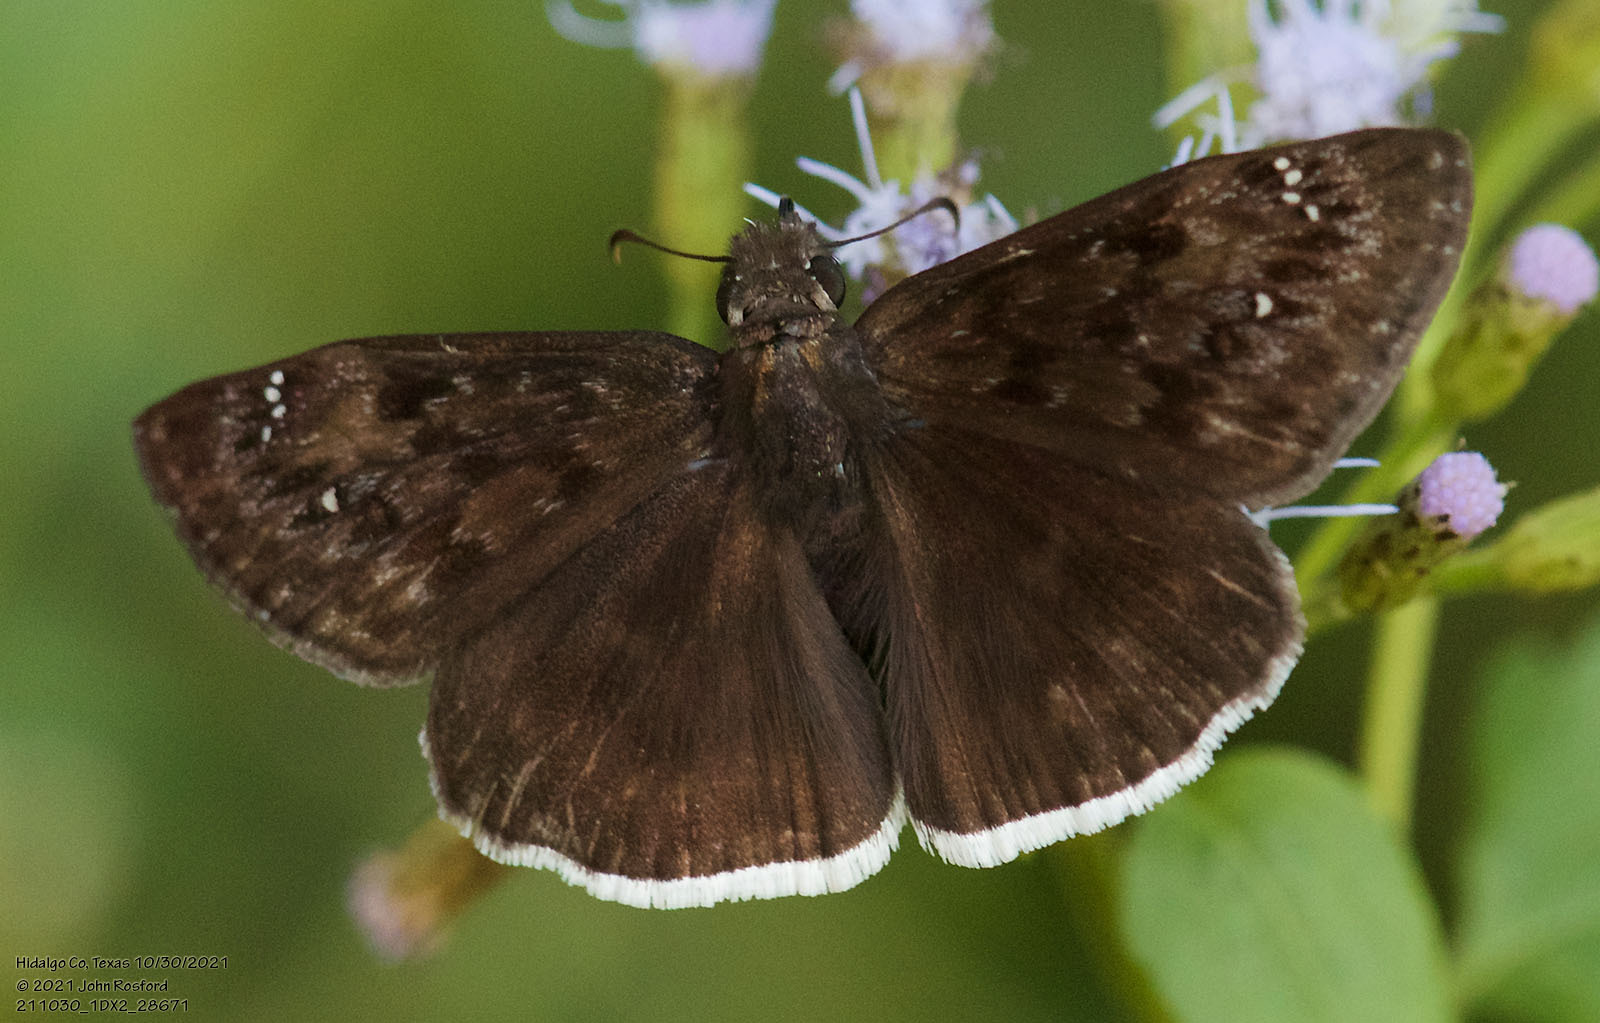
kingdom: Animalia
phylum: Arthropoda
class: Insecta
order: Lepidoptera
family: Hesperiidae
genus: Erynnis
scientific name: Erynnis tristis
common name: Mournful duskywing
